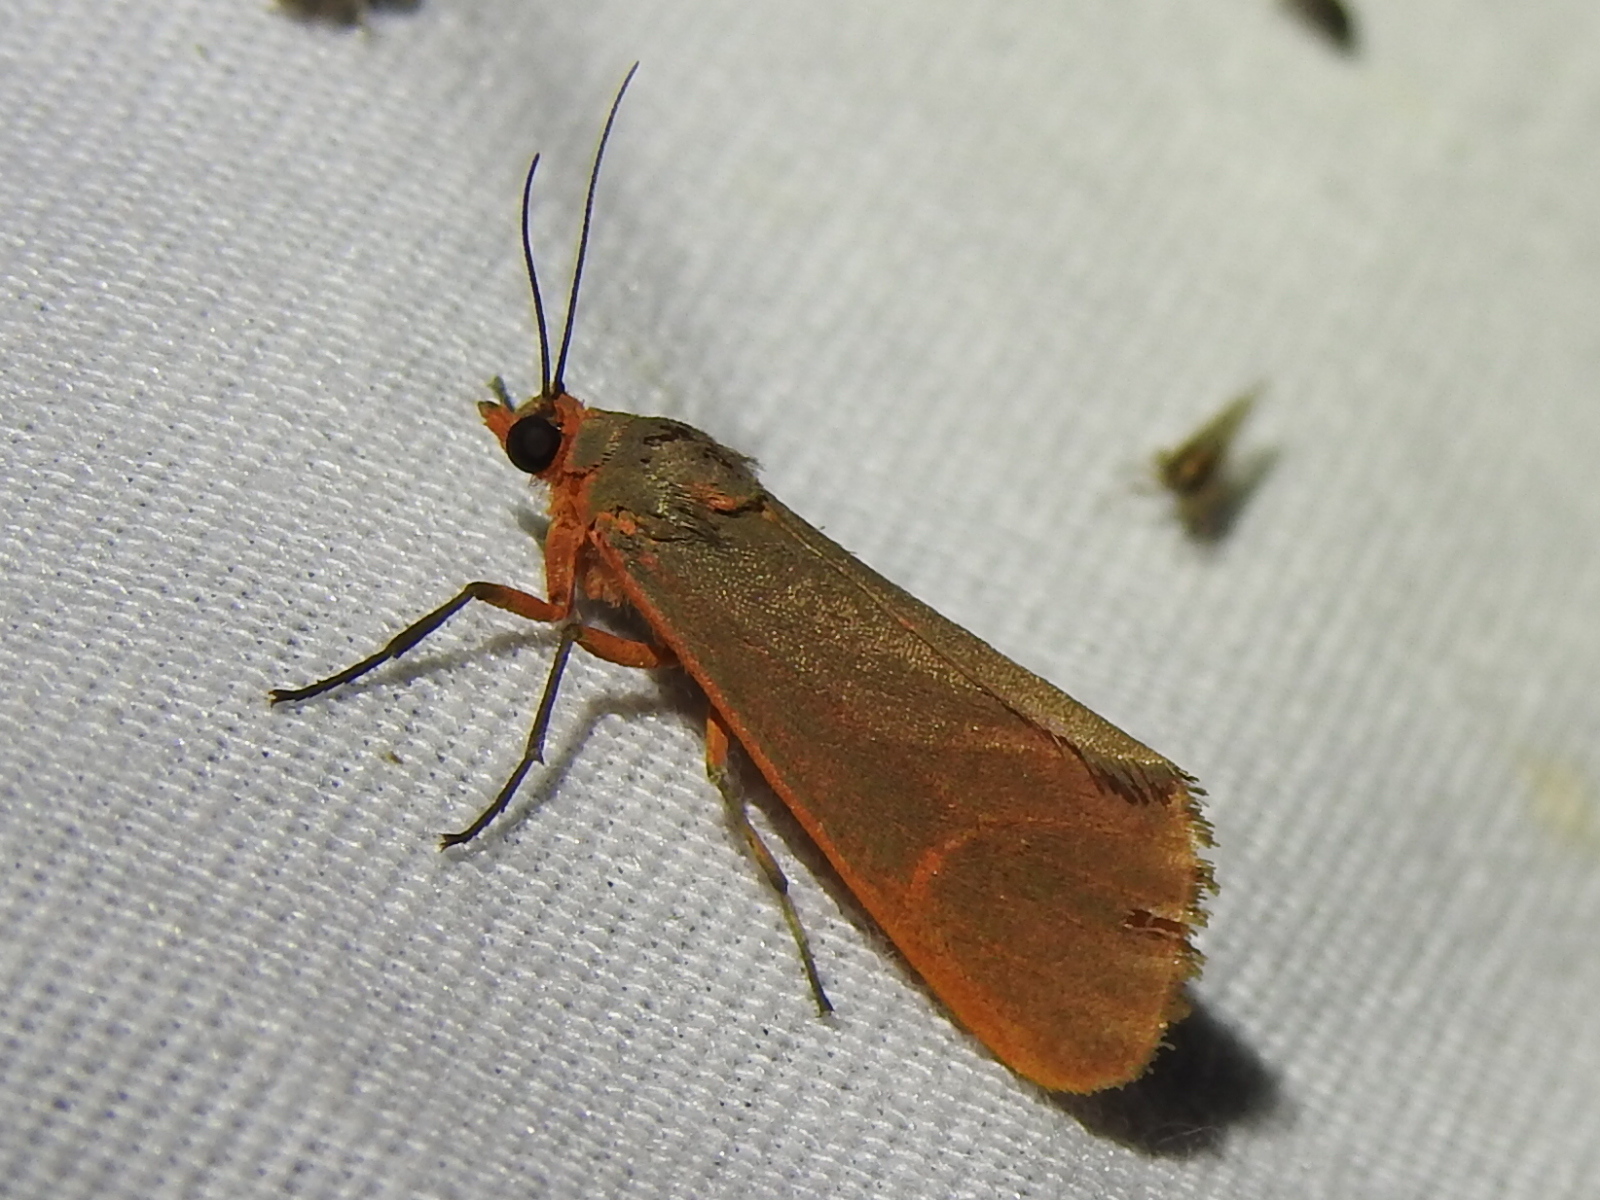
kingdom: Animalia
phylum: Arthropoda
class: Insecta
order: Lepidoptera
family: Erebidae
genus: Virbia
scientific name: Virbia costata
